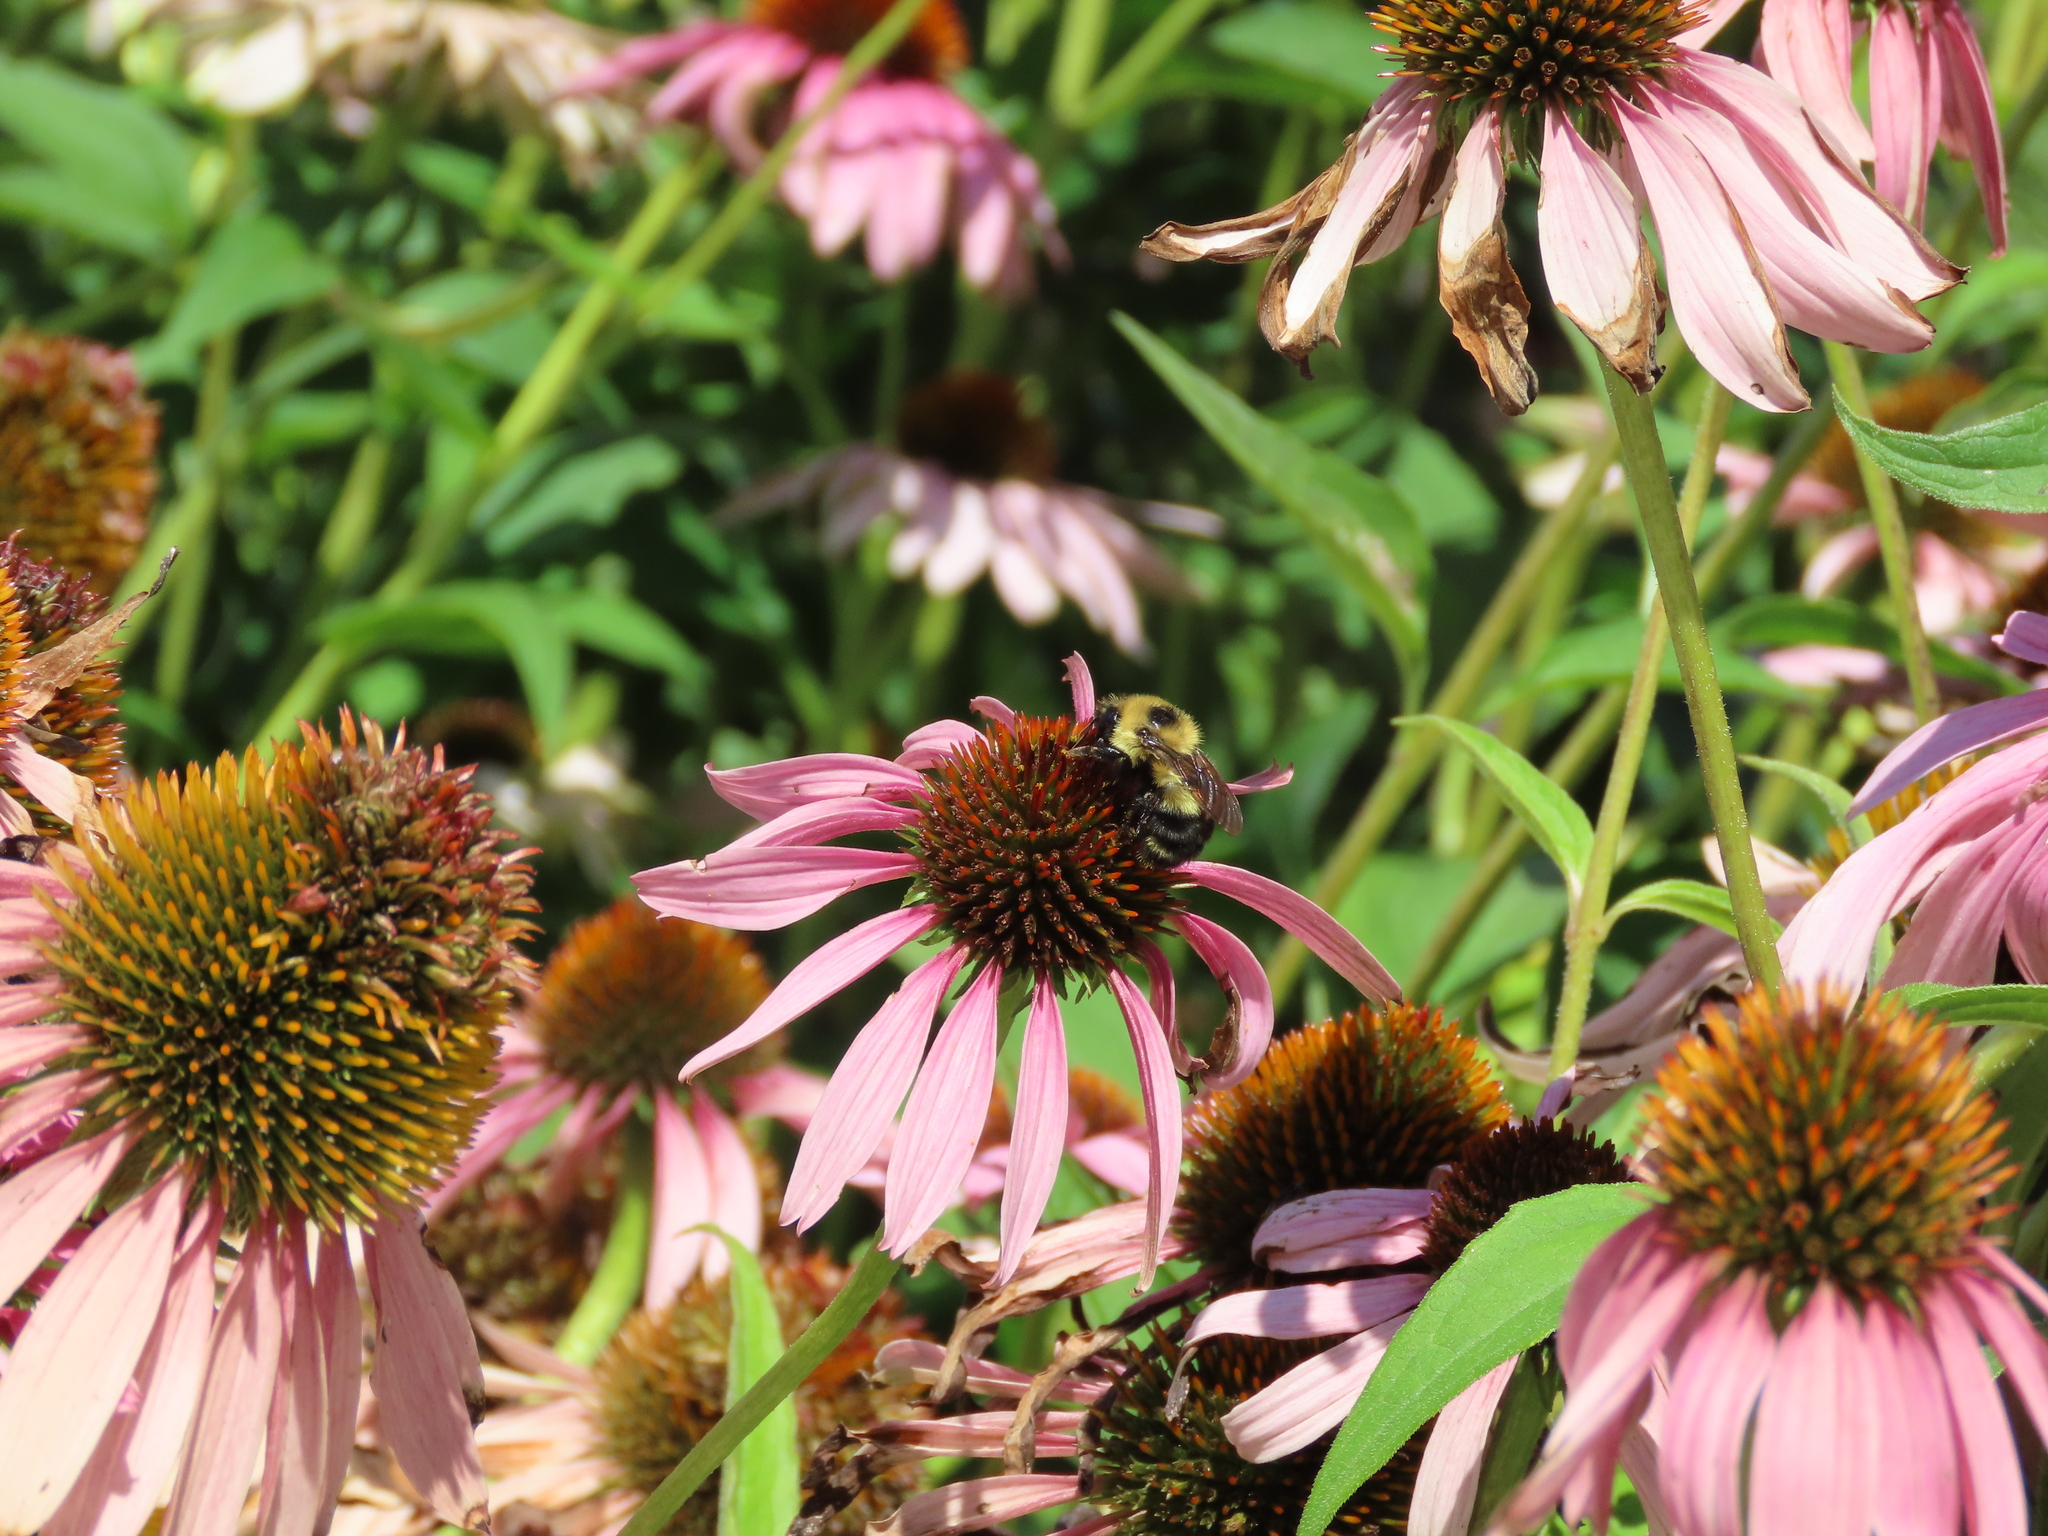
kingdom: Animalia
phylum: Arthropoda
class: Insecta
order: Hymenoptera
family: Apidae
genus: Bombus
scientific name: Bombus rufocinctus
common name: Red-belted bumble bee
